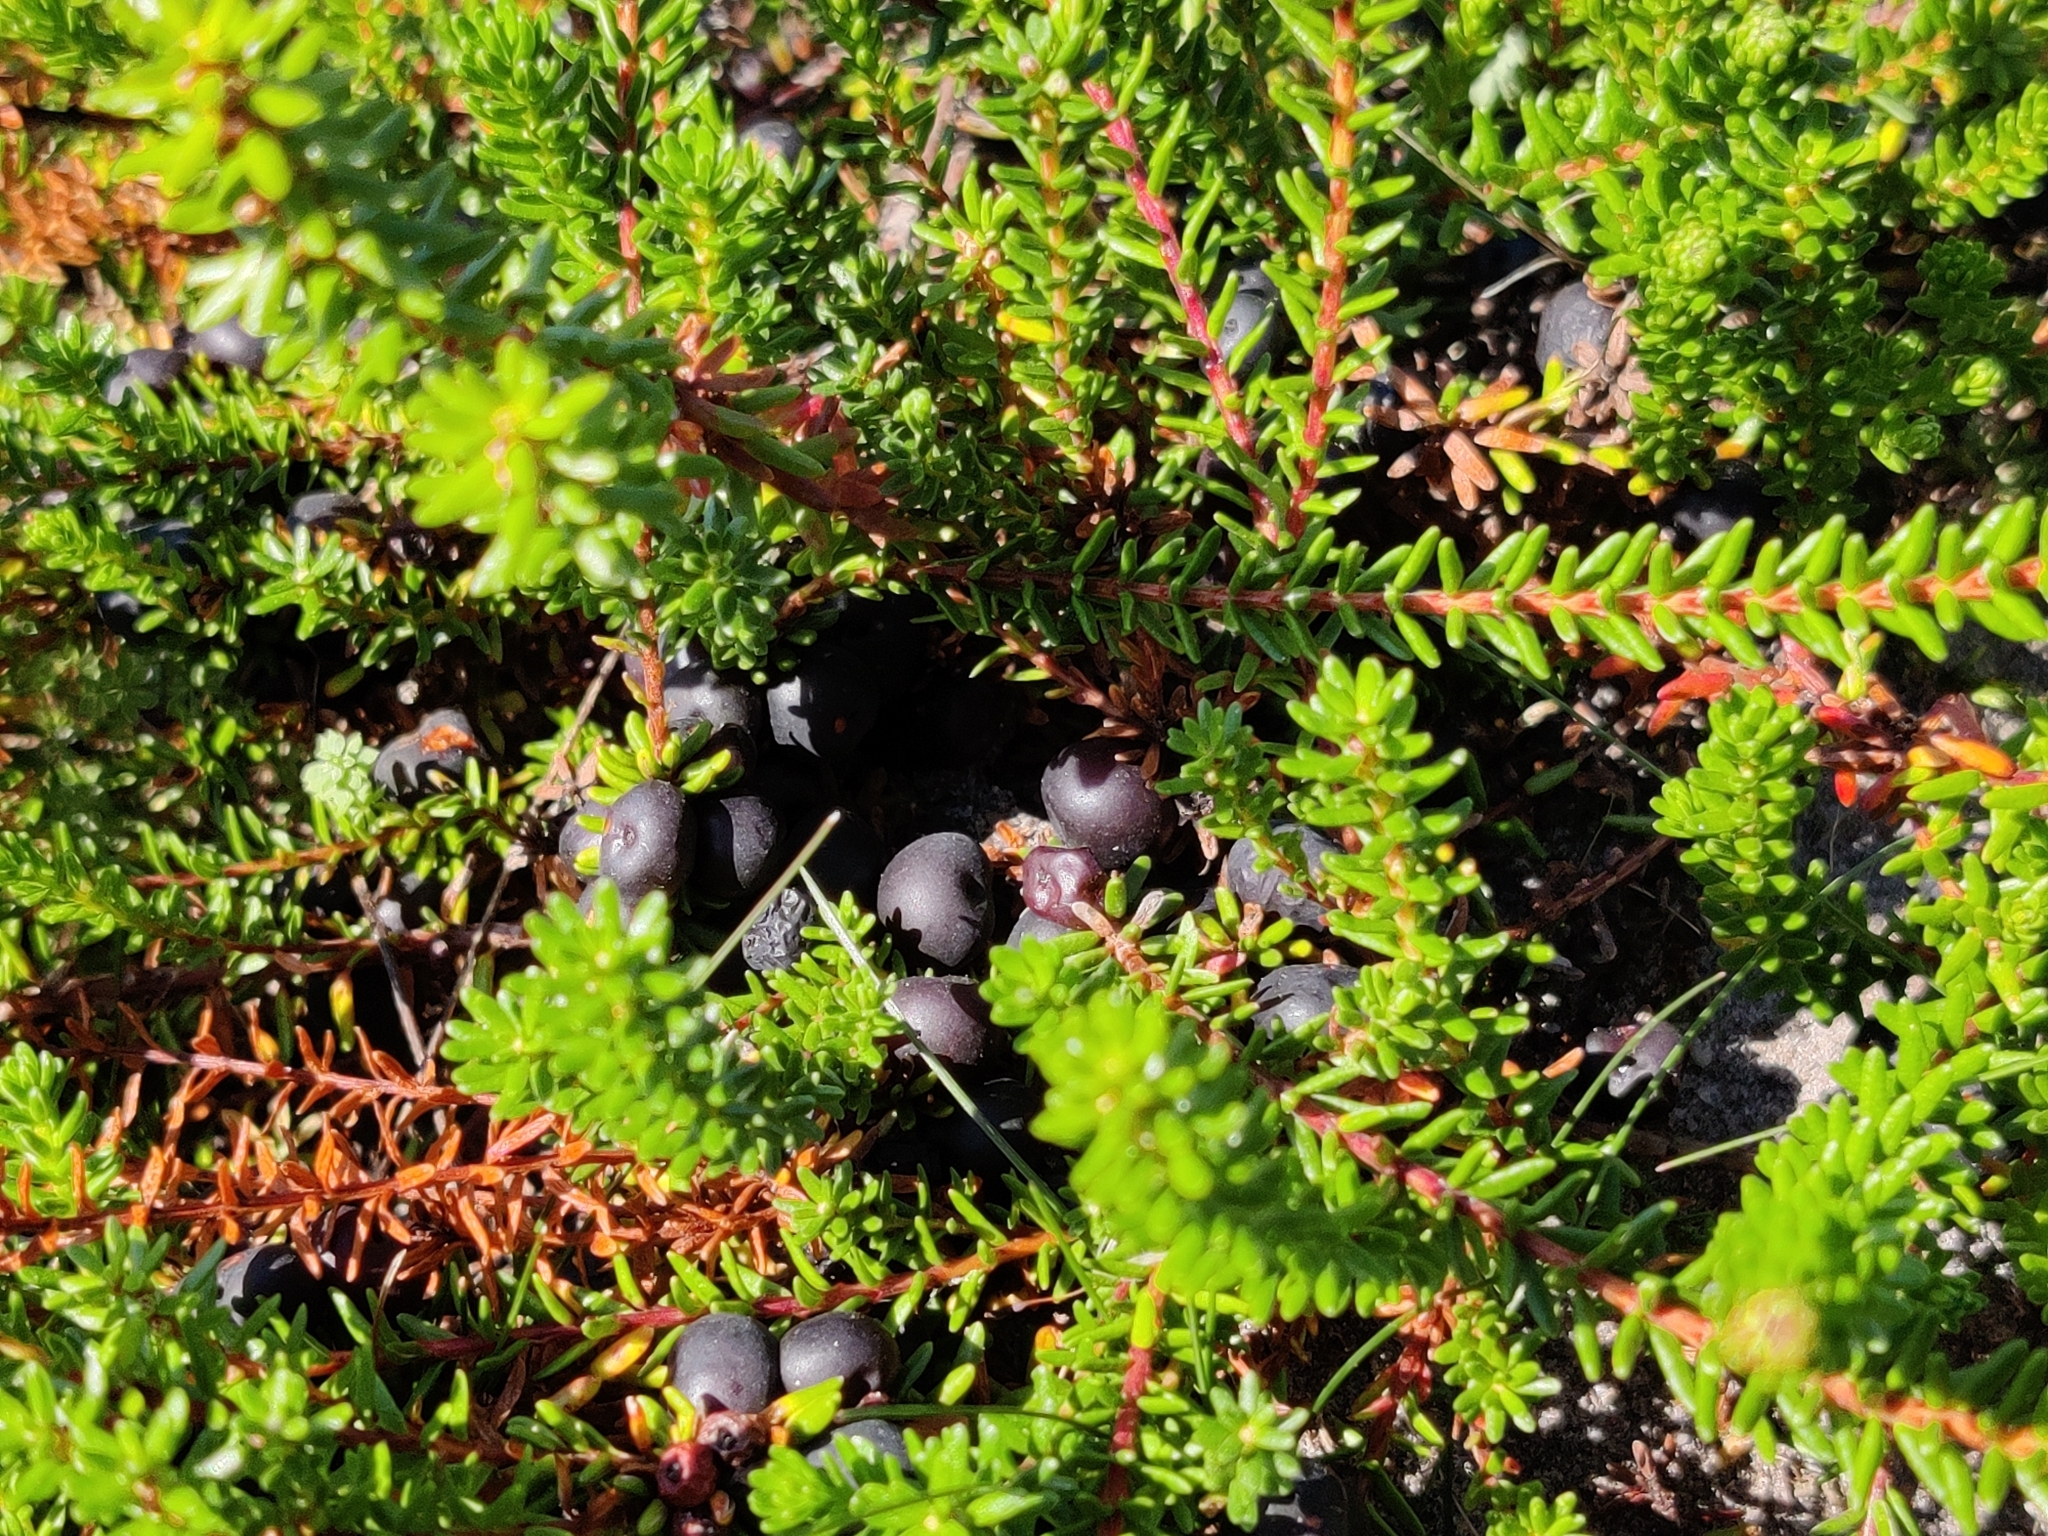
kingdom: Plantae
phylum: Tracheophyta
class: Magnoliopsida
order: Ericales
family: Ericaceae
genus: Empetrum
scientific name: Empetrum nigrum
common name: Black crowberry
